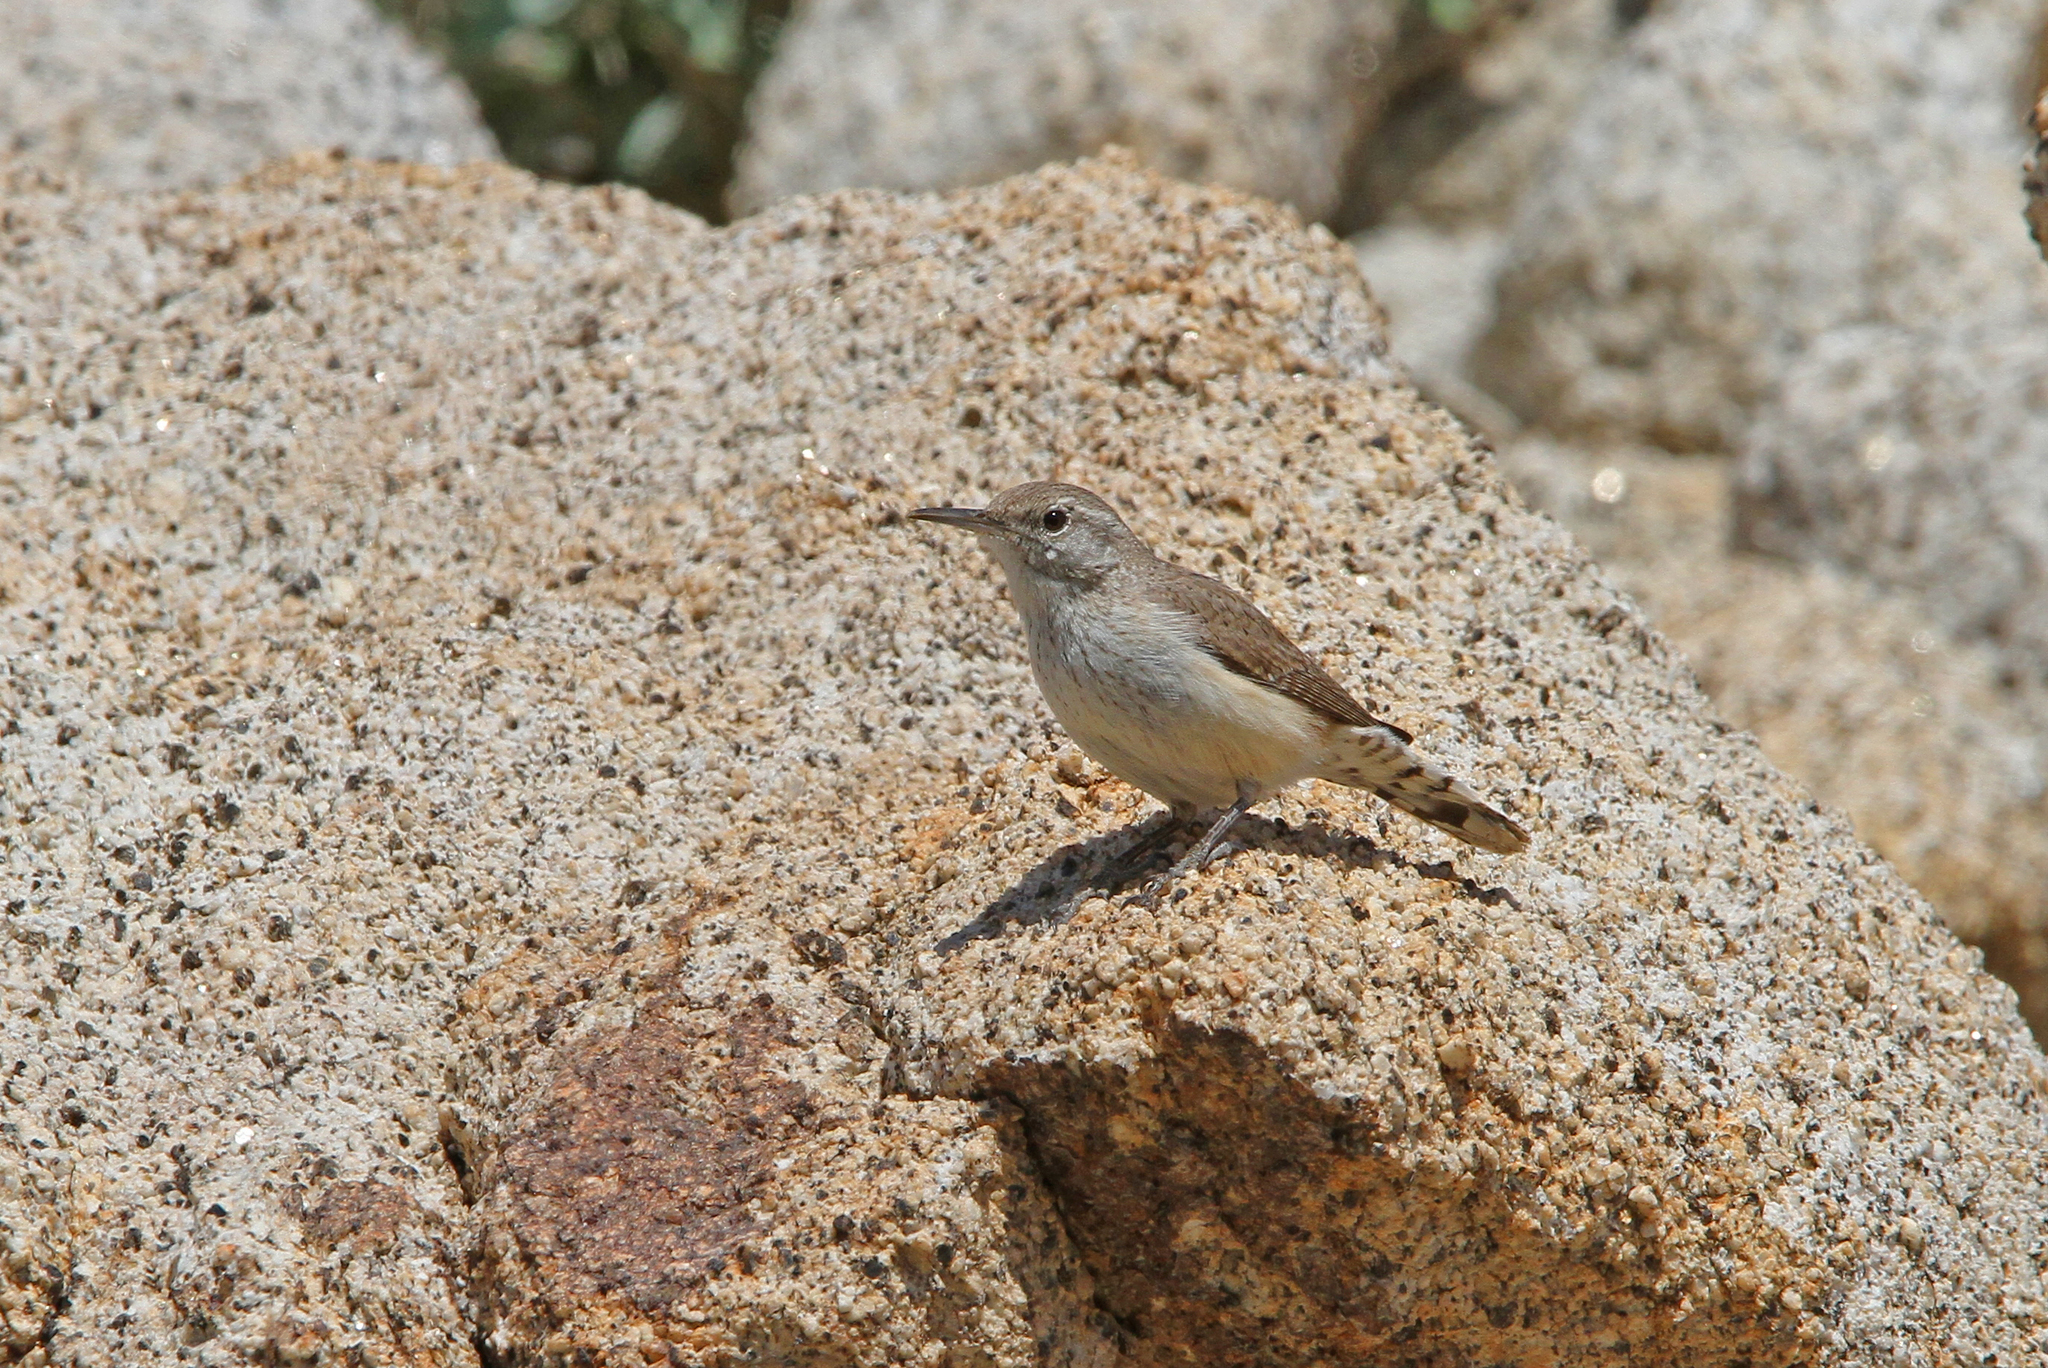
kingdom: Animalia
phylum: Chordata
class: Aves
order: Passeriformes
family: Troglodytidae
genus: Salpinctes
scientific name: Salpinctes obsoletus
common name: Rock wren
